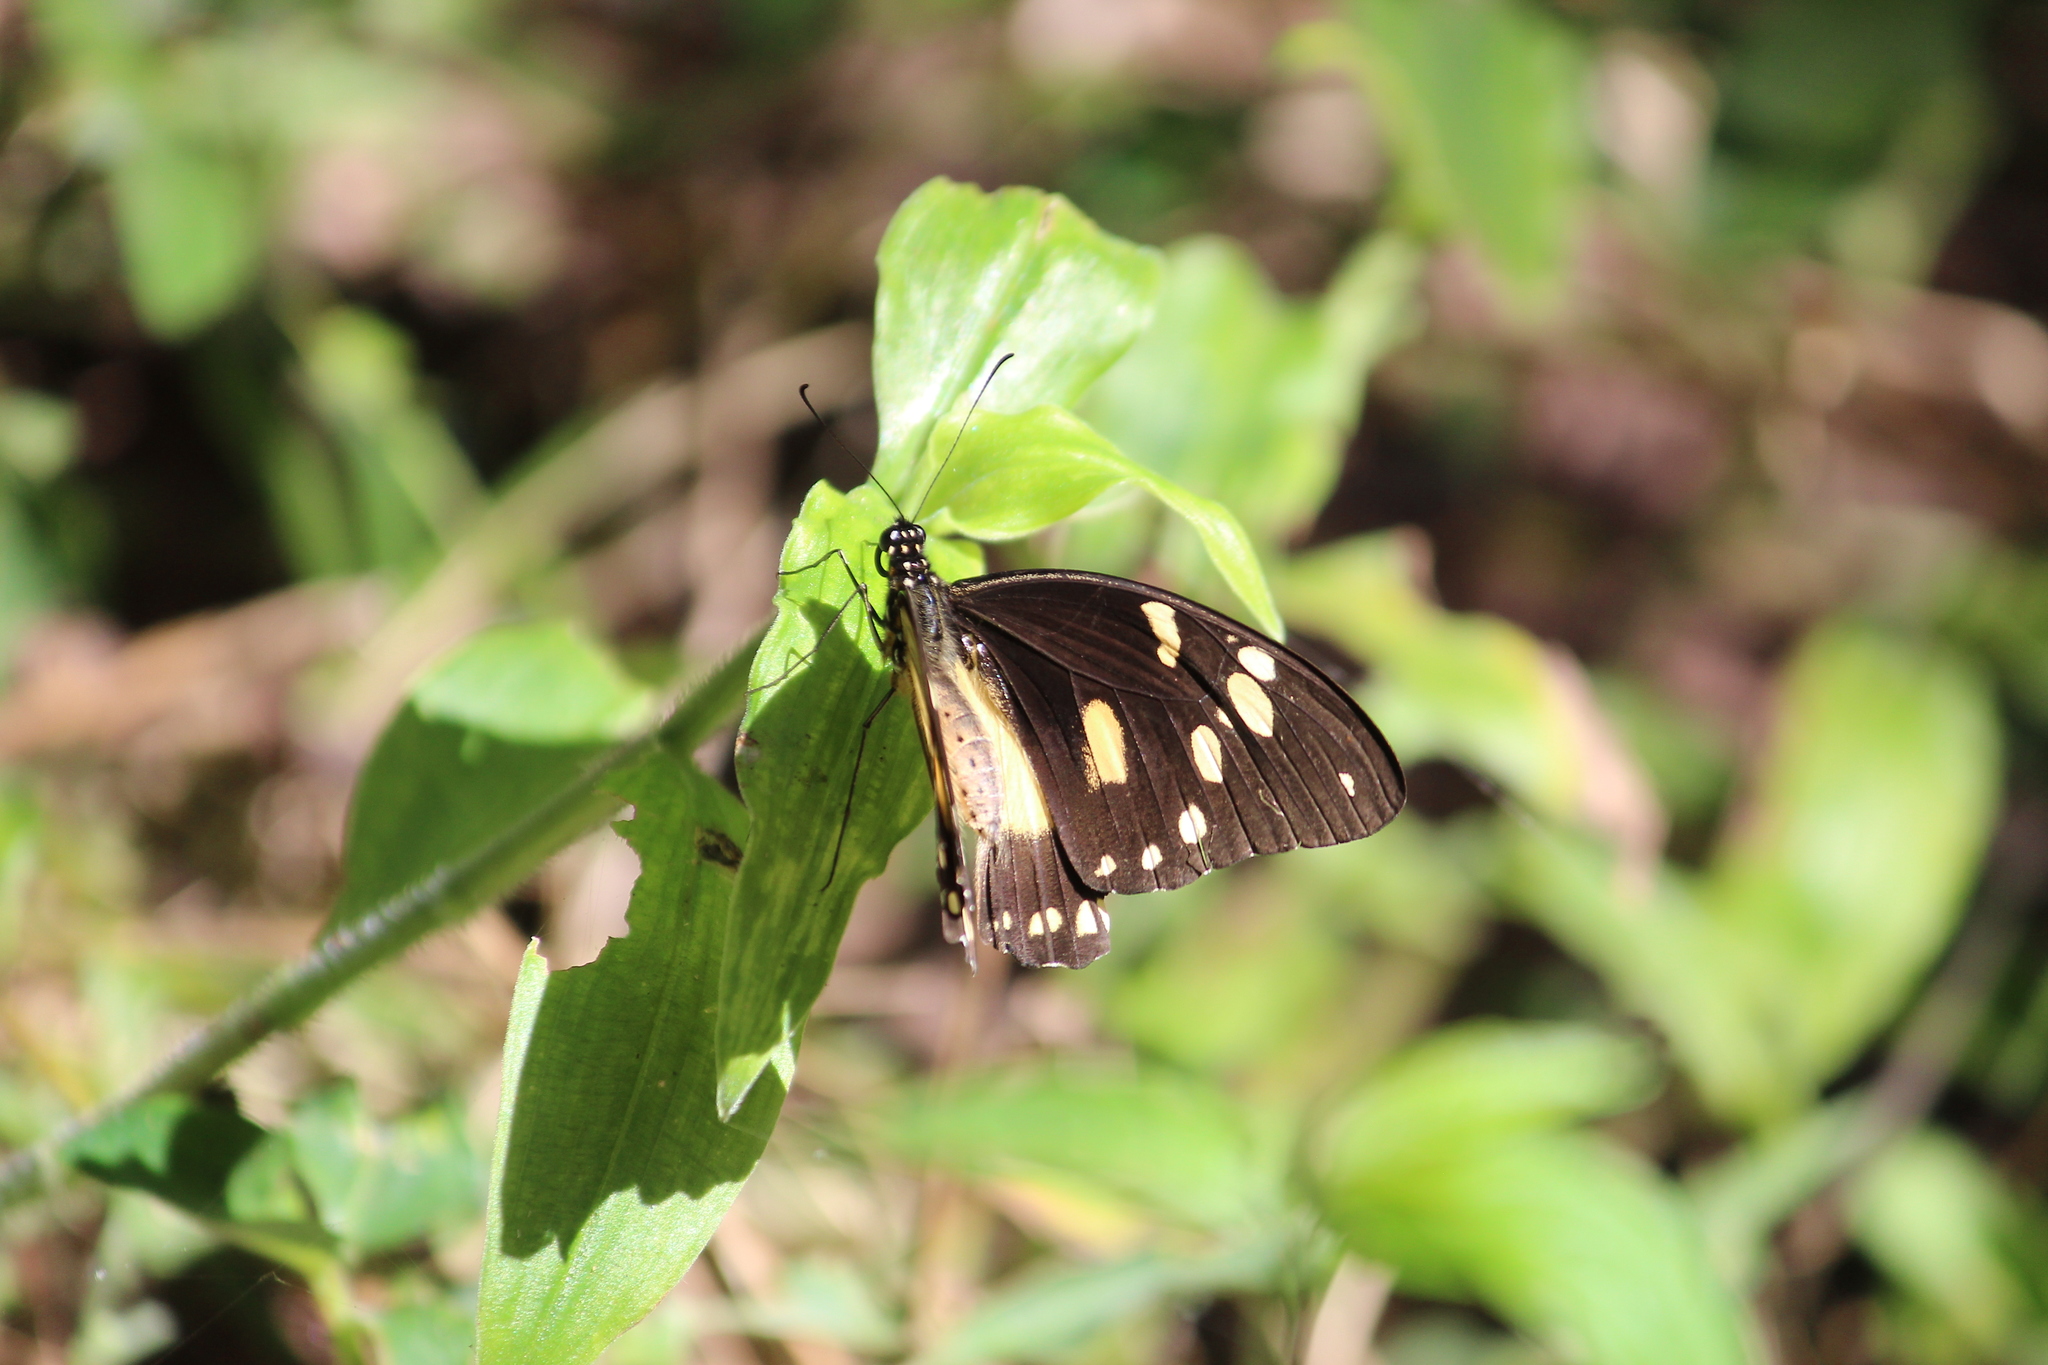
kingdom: Animalia
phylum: Arthropoda
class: Insecta
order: Lepidoptera
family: Papilionidae
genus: Papilio
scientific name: Papilio dardanus
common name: Flying handkerchief
